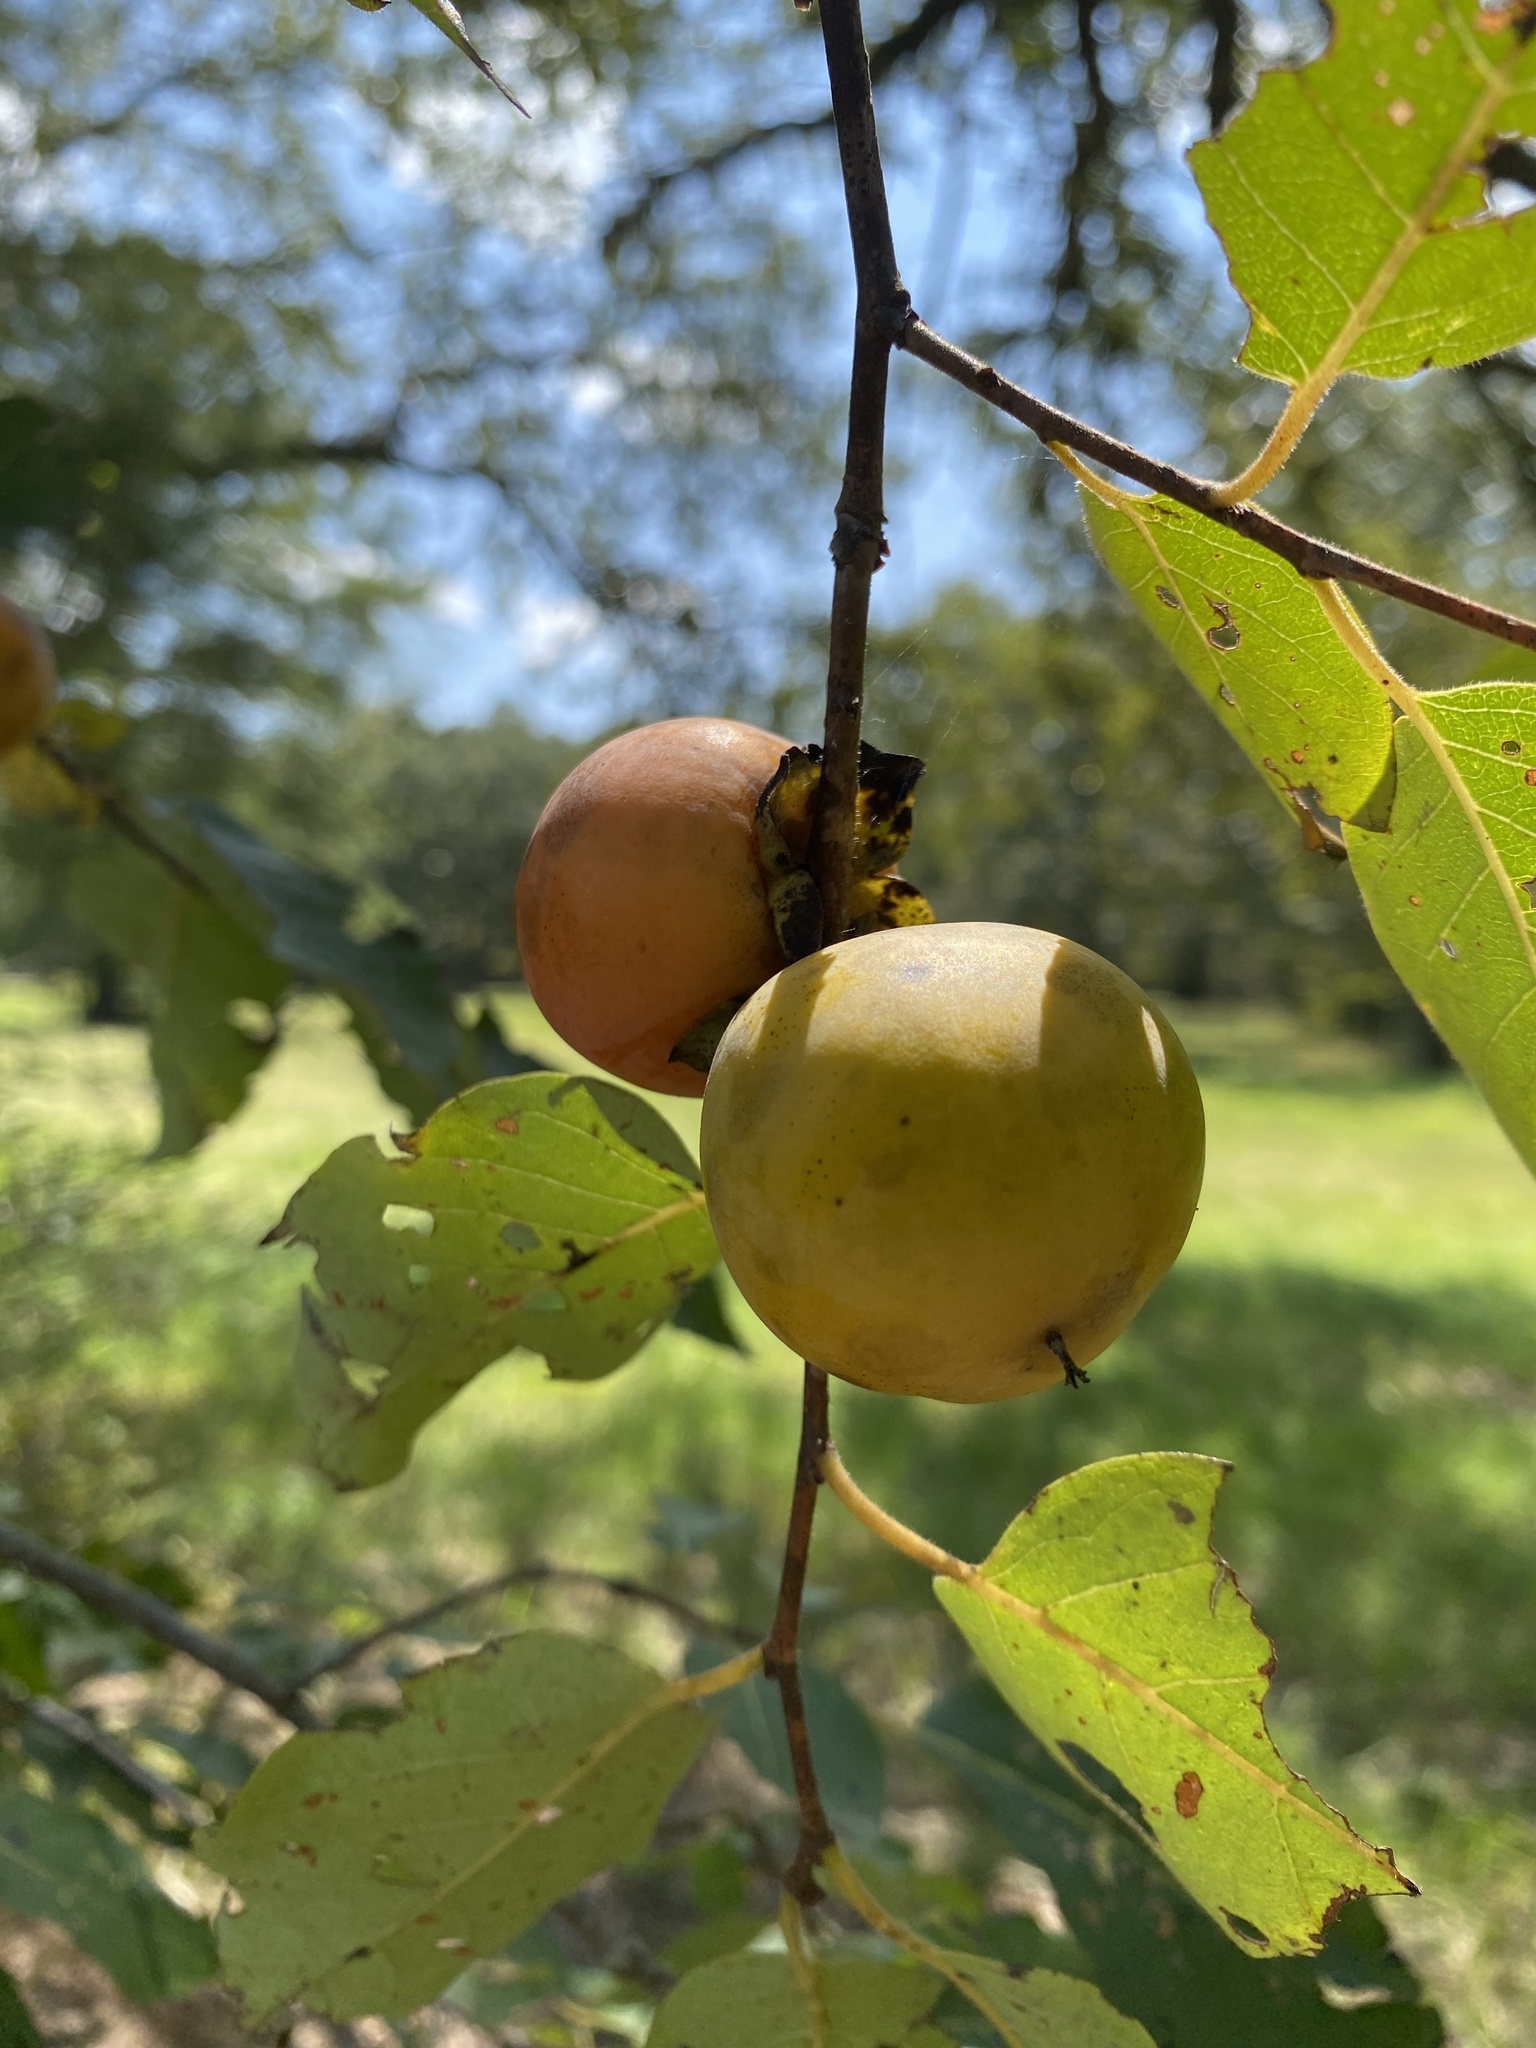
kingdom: Plantae
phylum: Tracheophyta
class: Magnoliopsida
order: Ericales
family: Ebenaceae
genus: Diospyros
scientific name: Diospyros virginiana
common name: Persimmon
